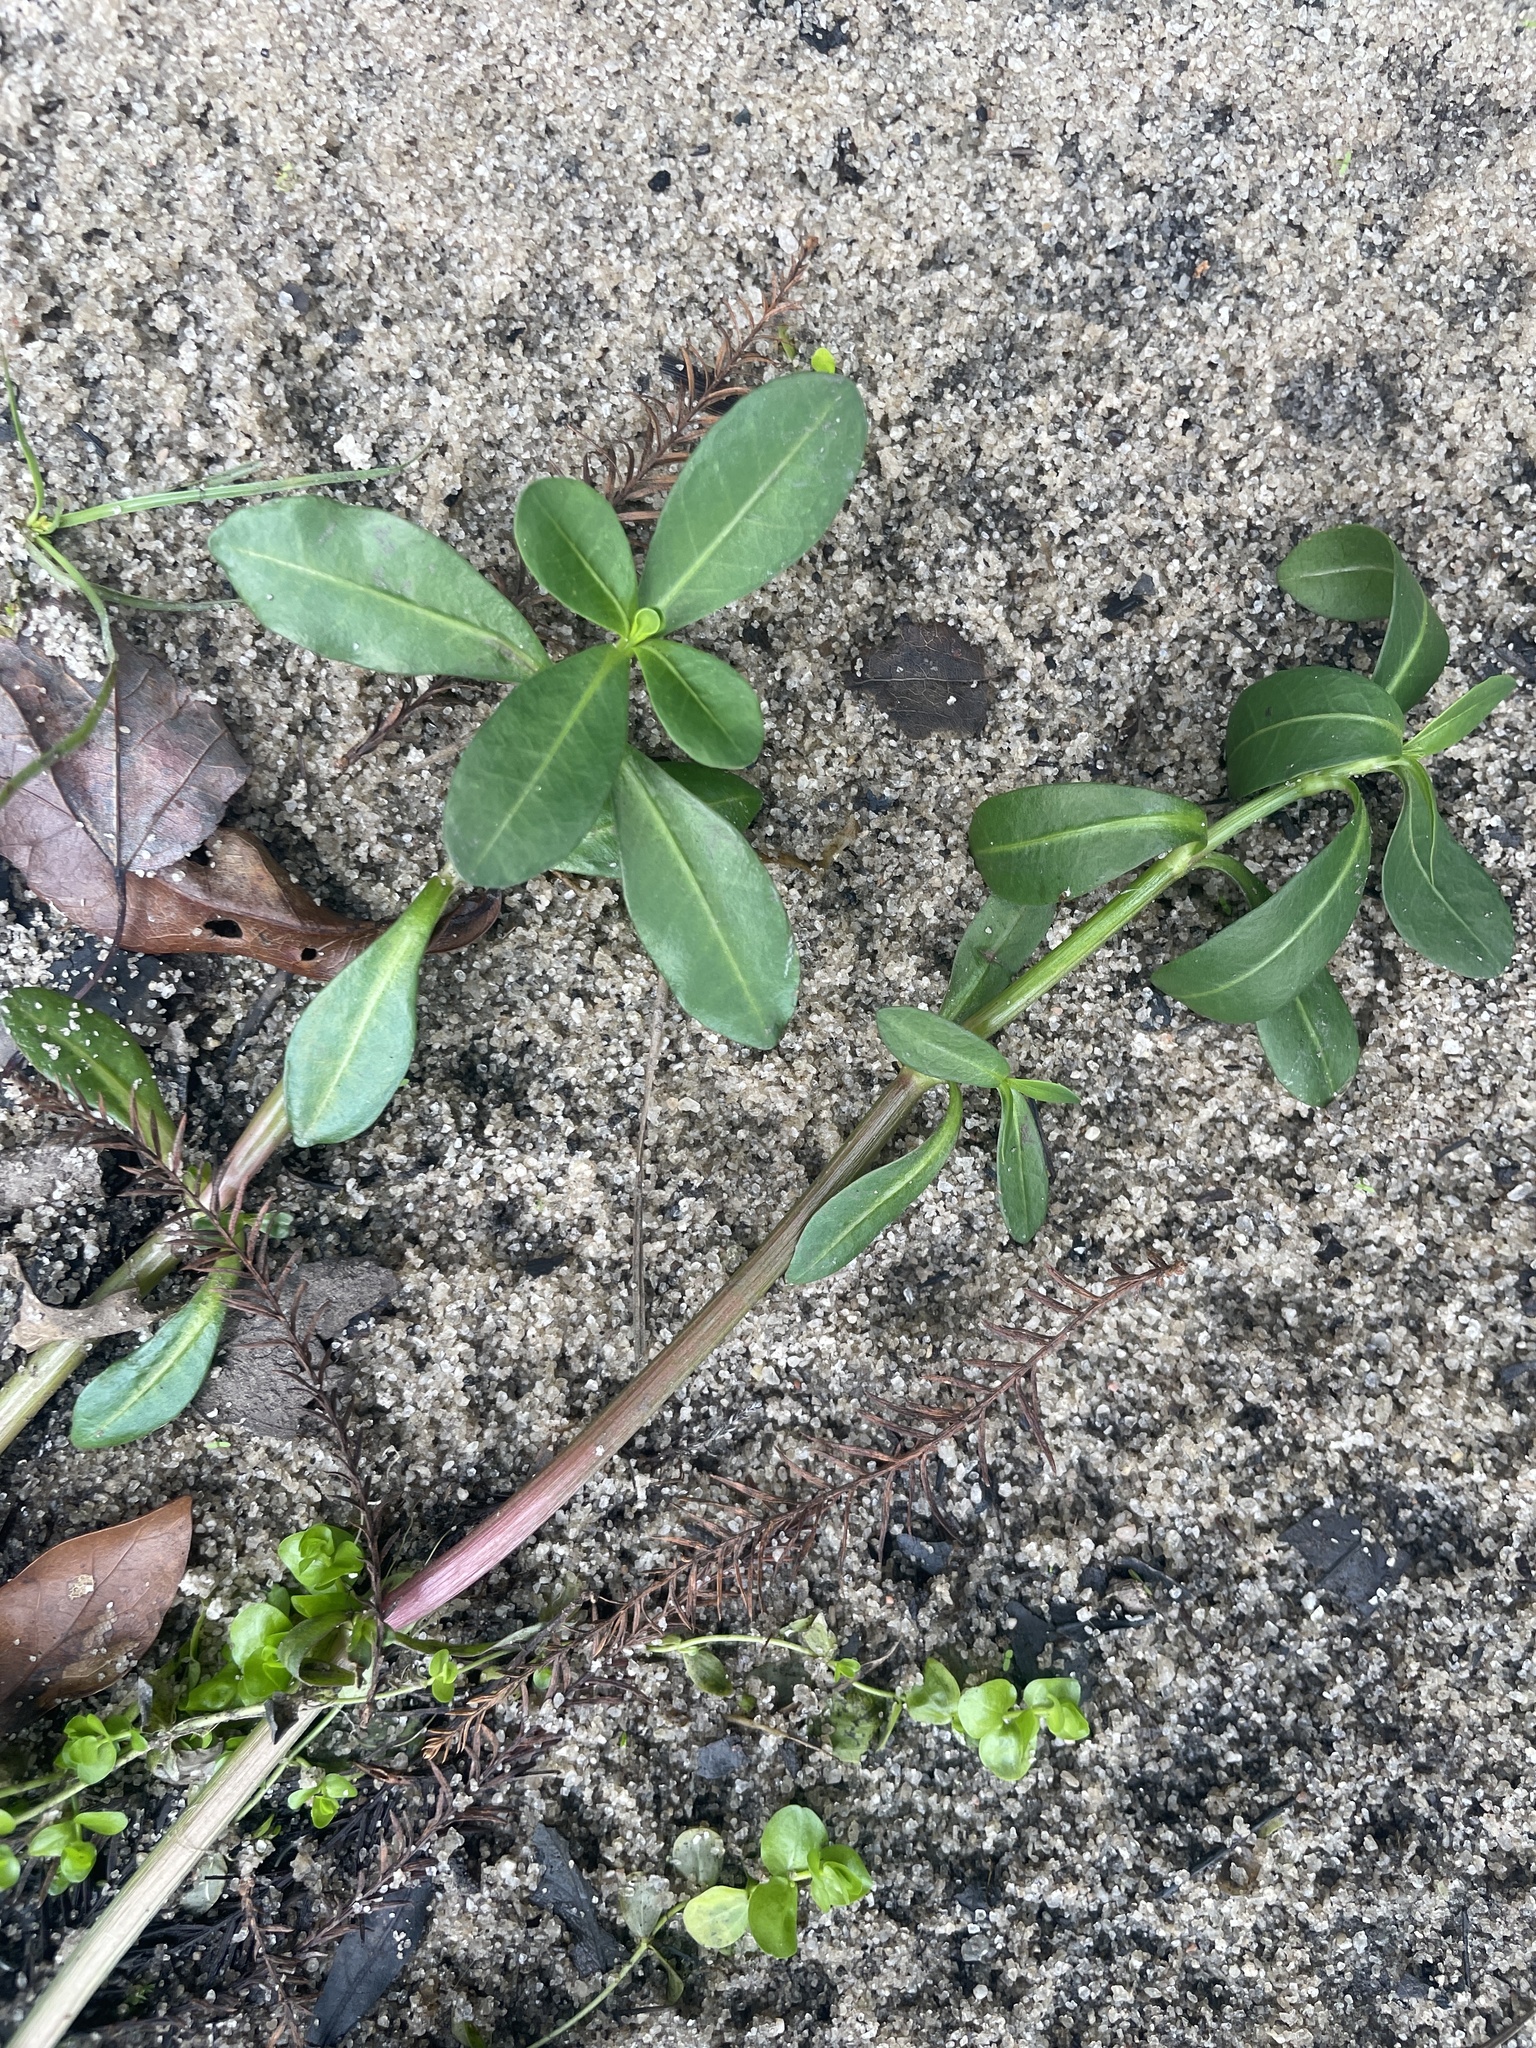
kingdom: Plantae
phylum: Tracheophyta
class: Magnoliopsida
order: Caryophyllales
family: Amaranthaceae
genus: Alternanthera
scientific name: Alternanthera philoxeroides
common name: Alligatorweed
